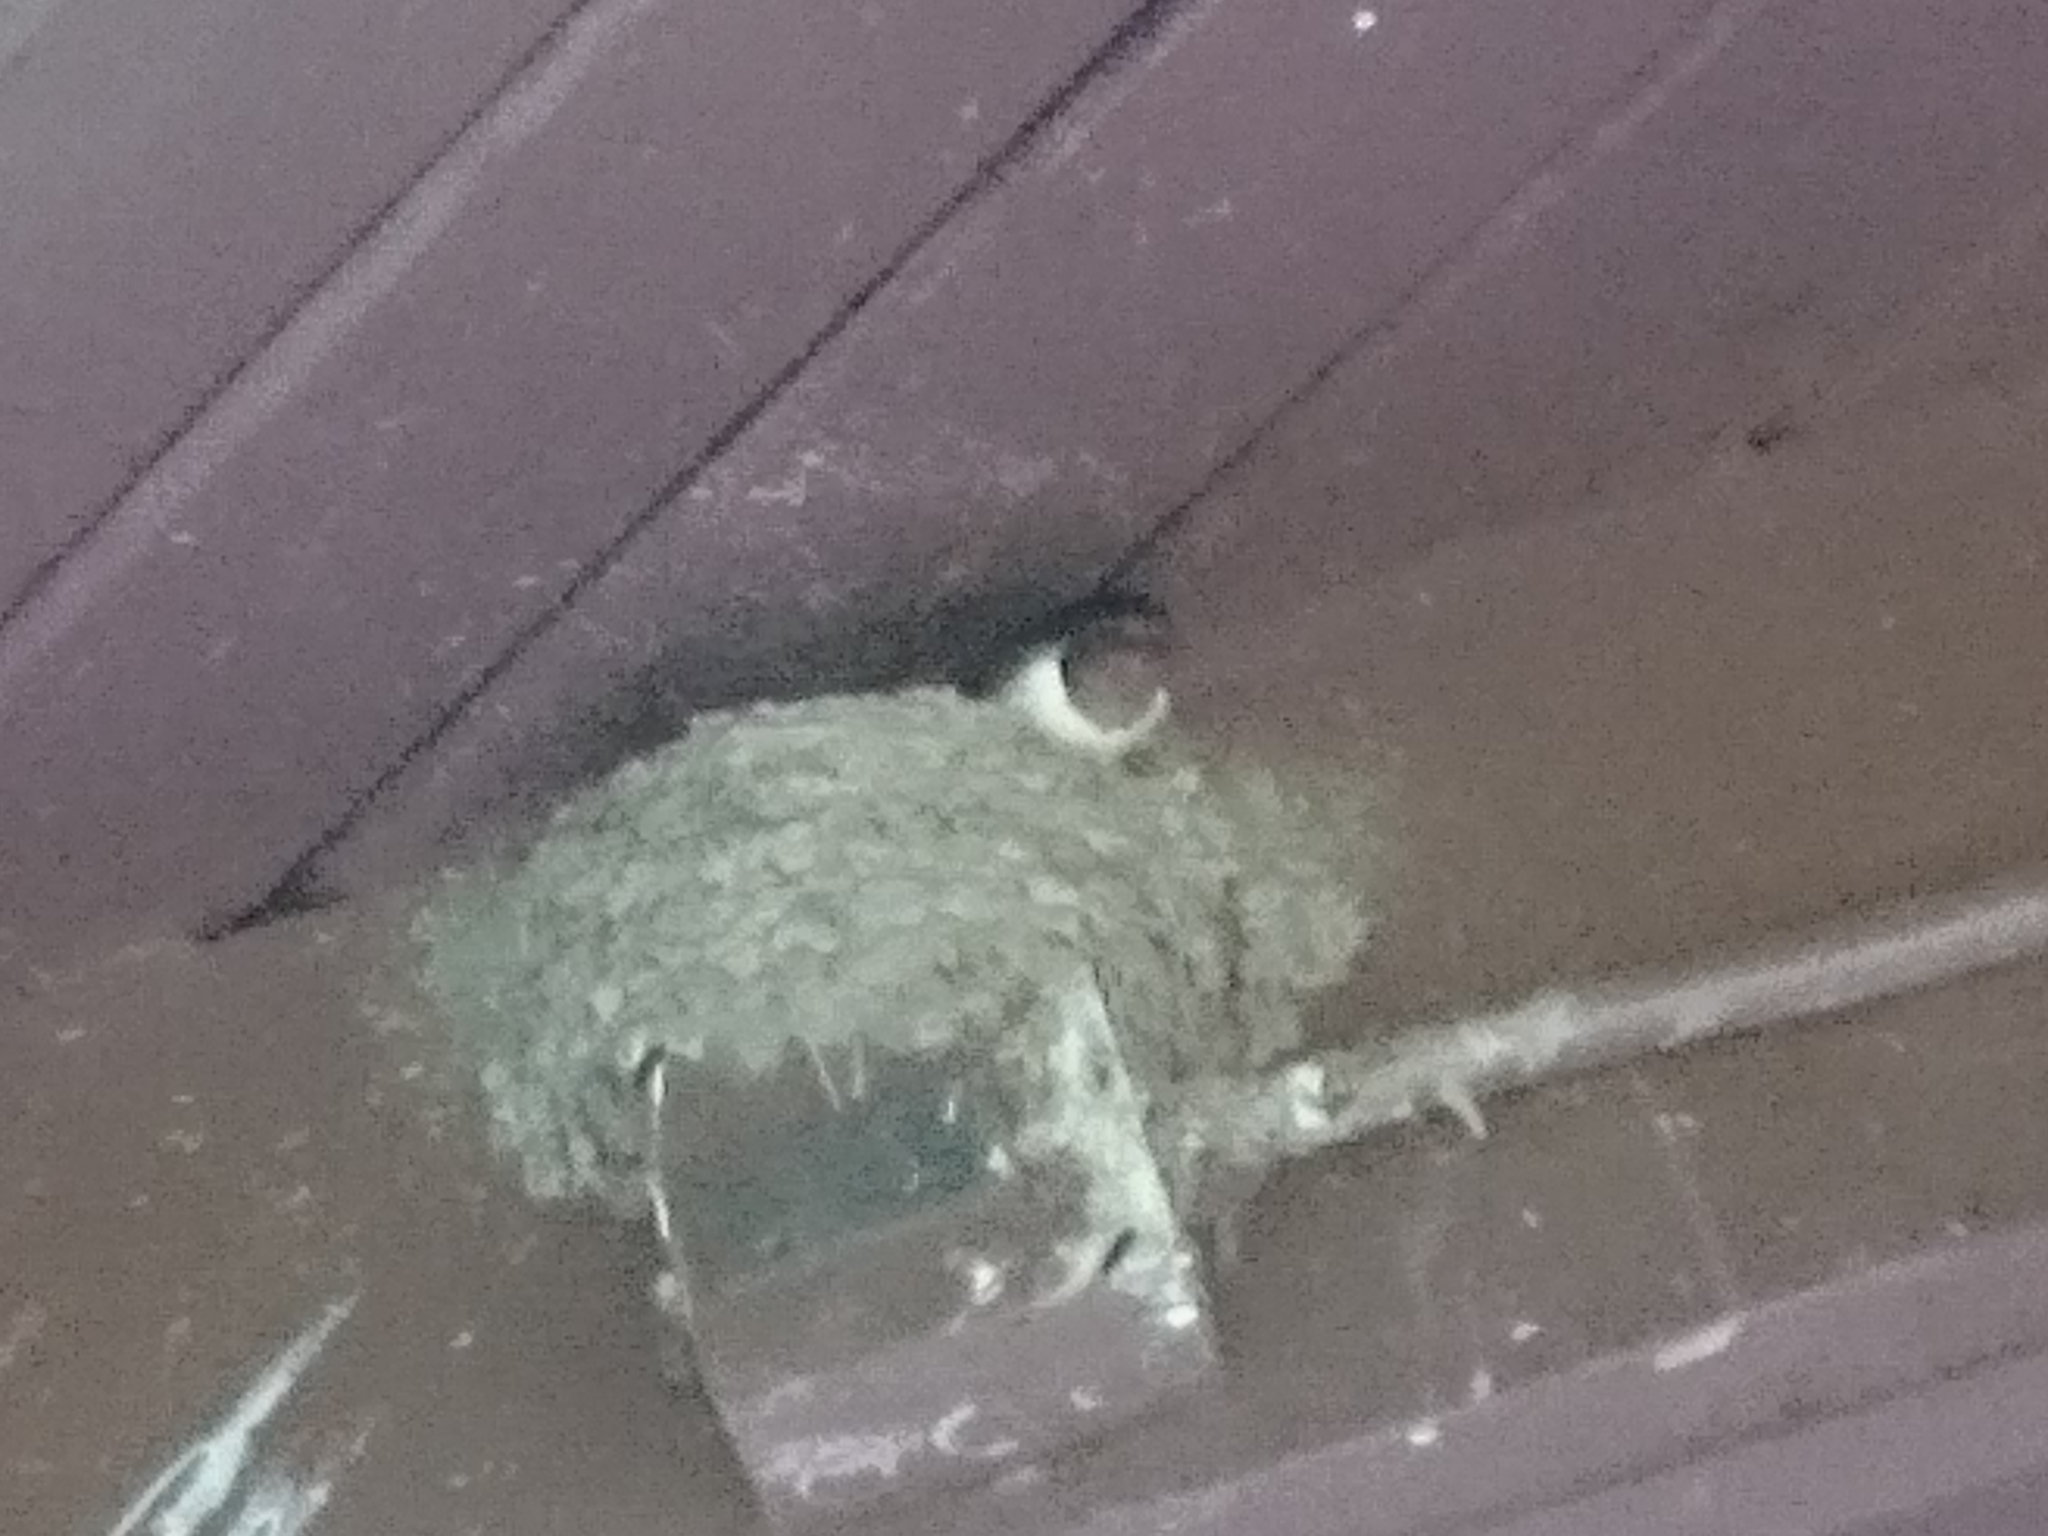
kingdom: Animalia
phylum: Chordata
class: Aves
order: Passeriformes
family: Hirundinidae
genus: Hirundo
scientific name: Hirundo rustica
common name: Barn swallow
